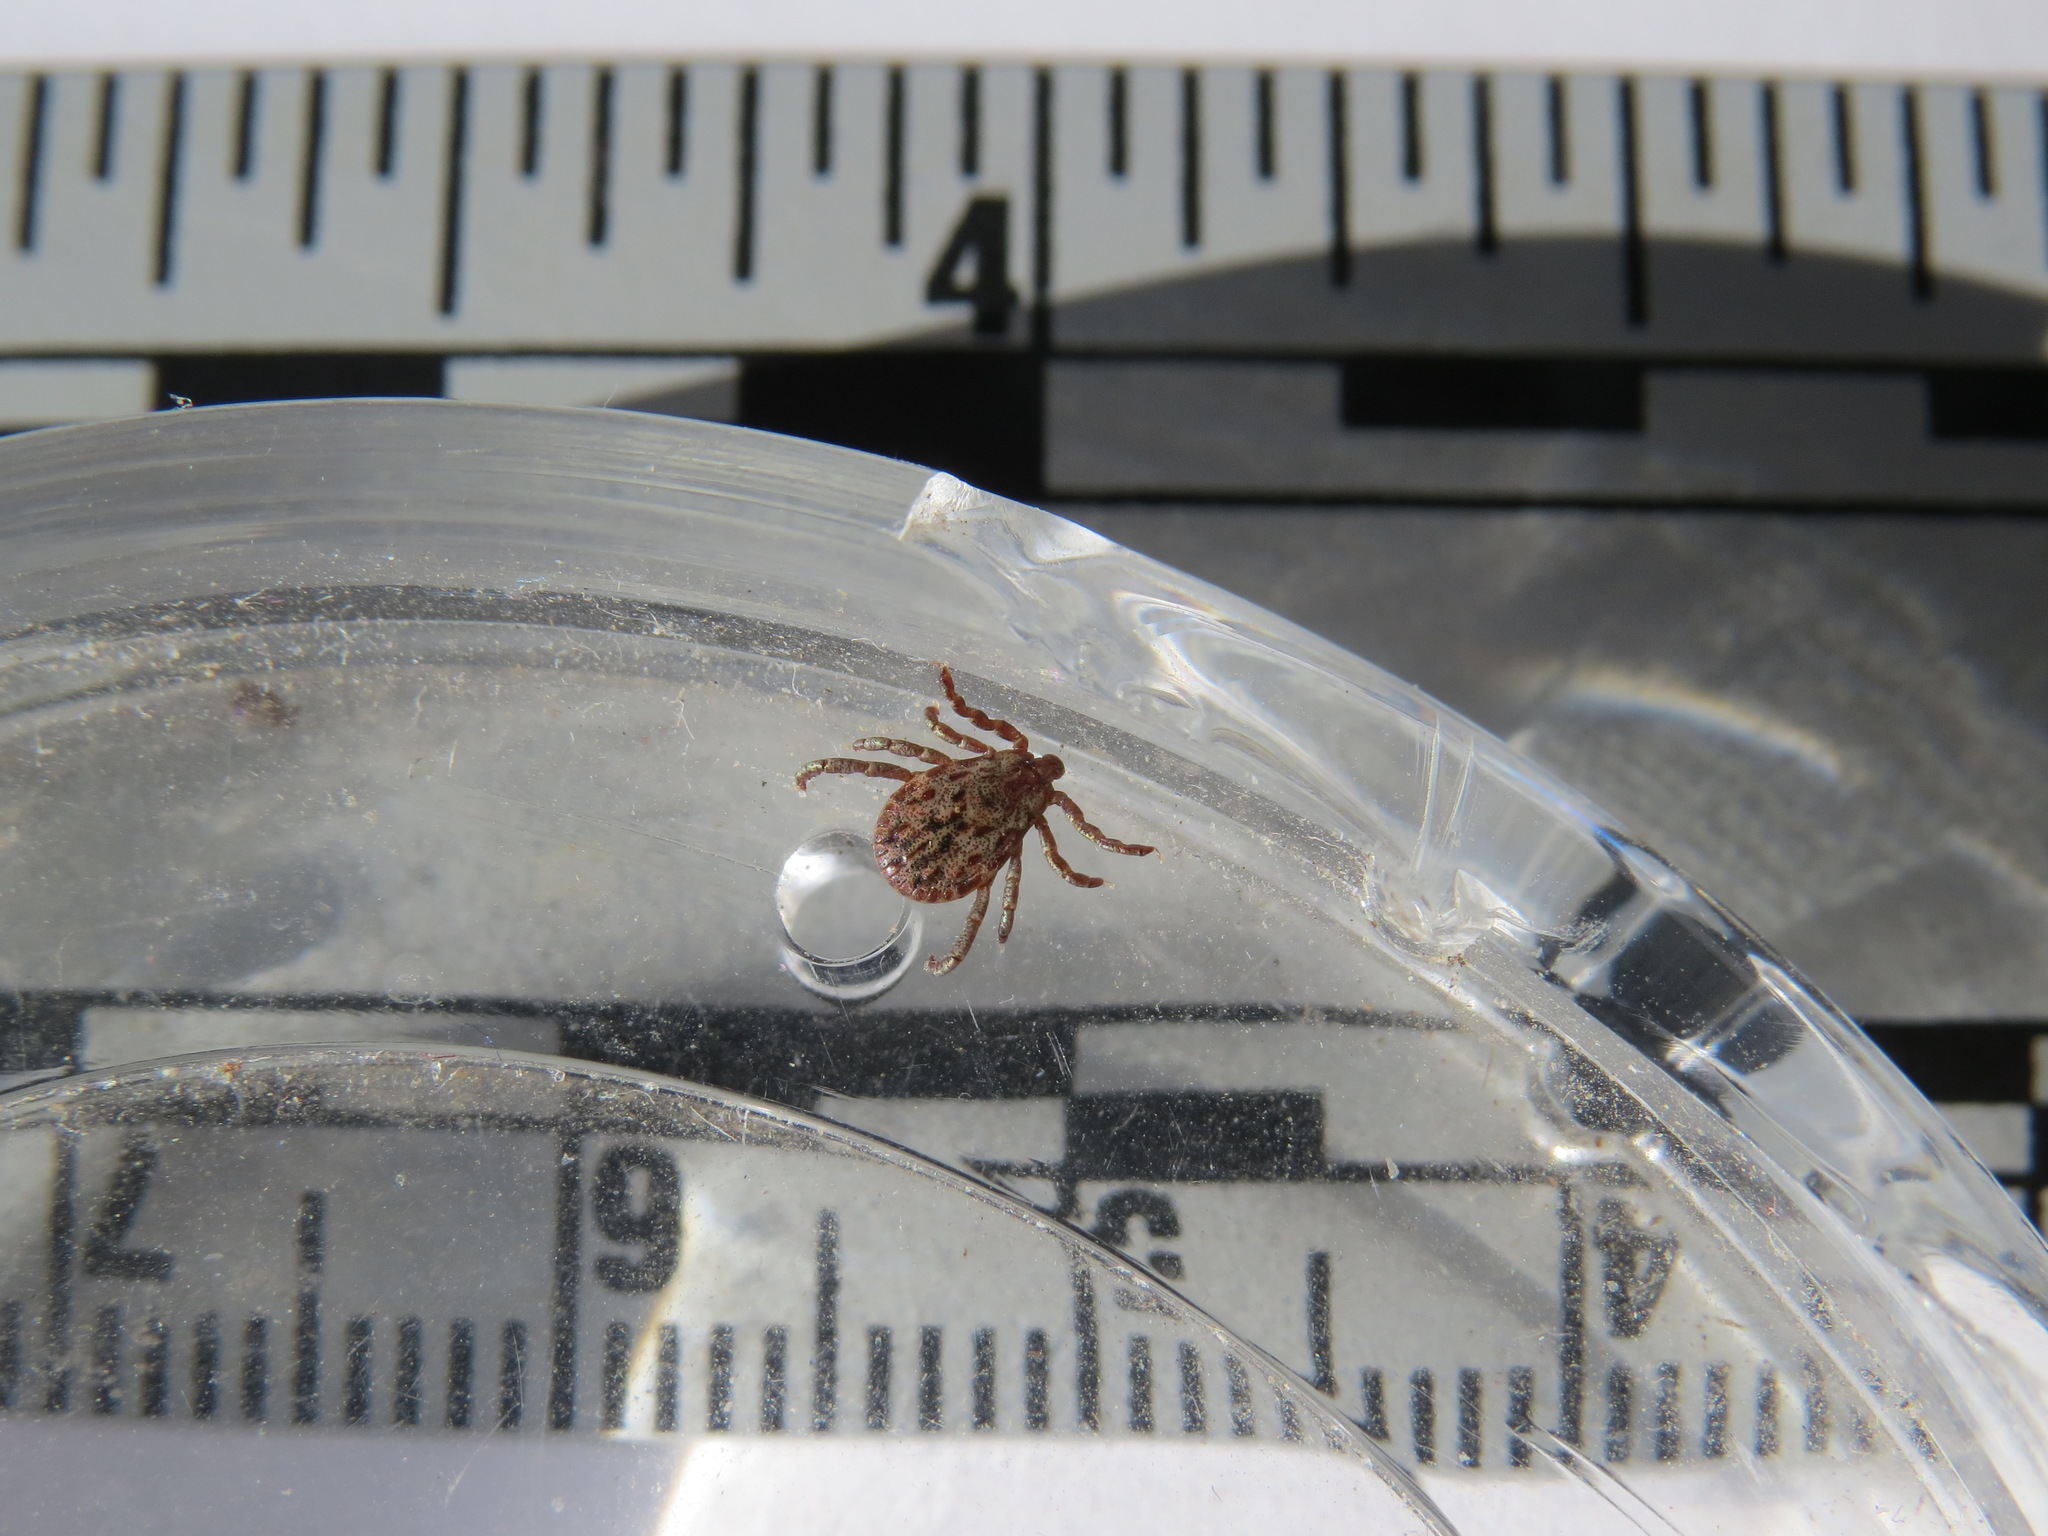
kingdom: Animalia
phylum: Arthropoda
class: Arachnida
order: Ixodida
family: Ixodidae
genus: Dermacentor
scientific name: Dermacentor occidentalis
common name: Net tick
